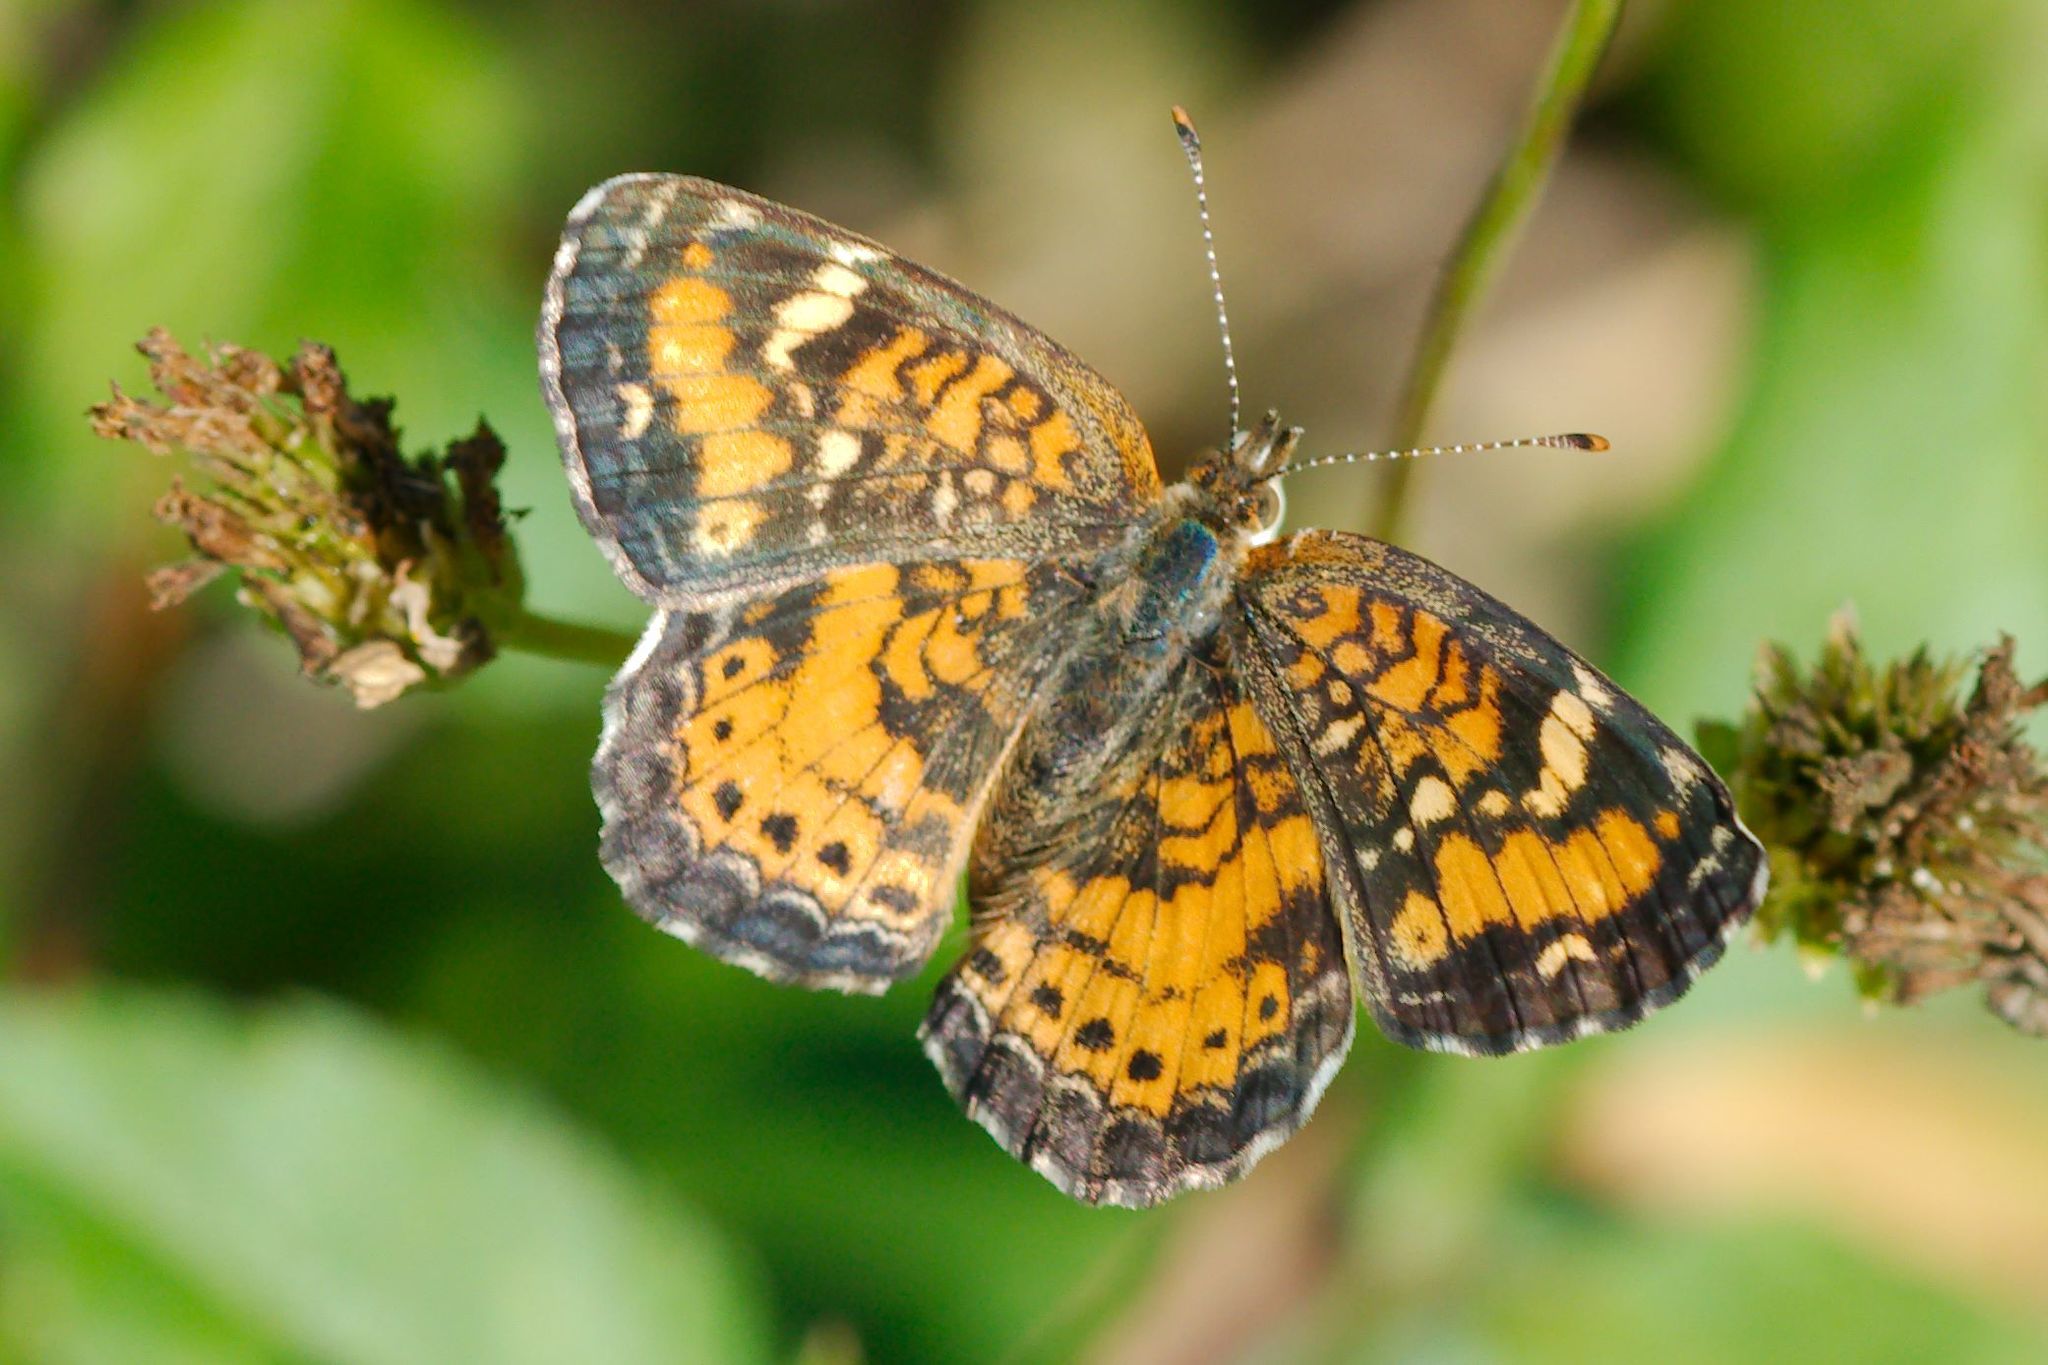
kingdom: Animalia
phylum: Arthropoda
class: Insecta
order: Lepidoptera
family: Nymphalidae
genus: Phyciodes
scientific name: Phyciodes phaon
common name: Phaon crescent
